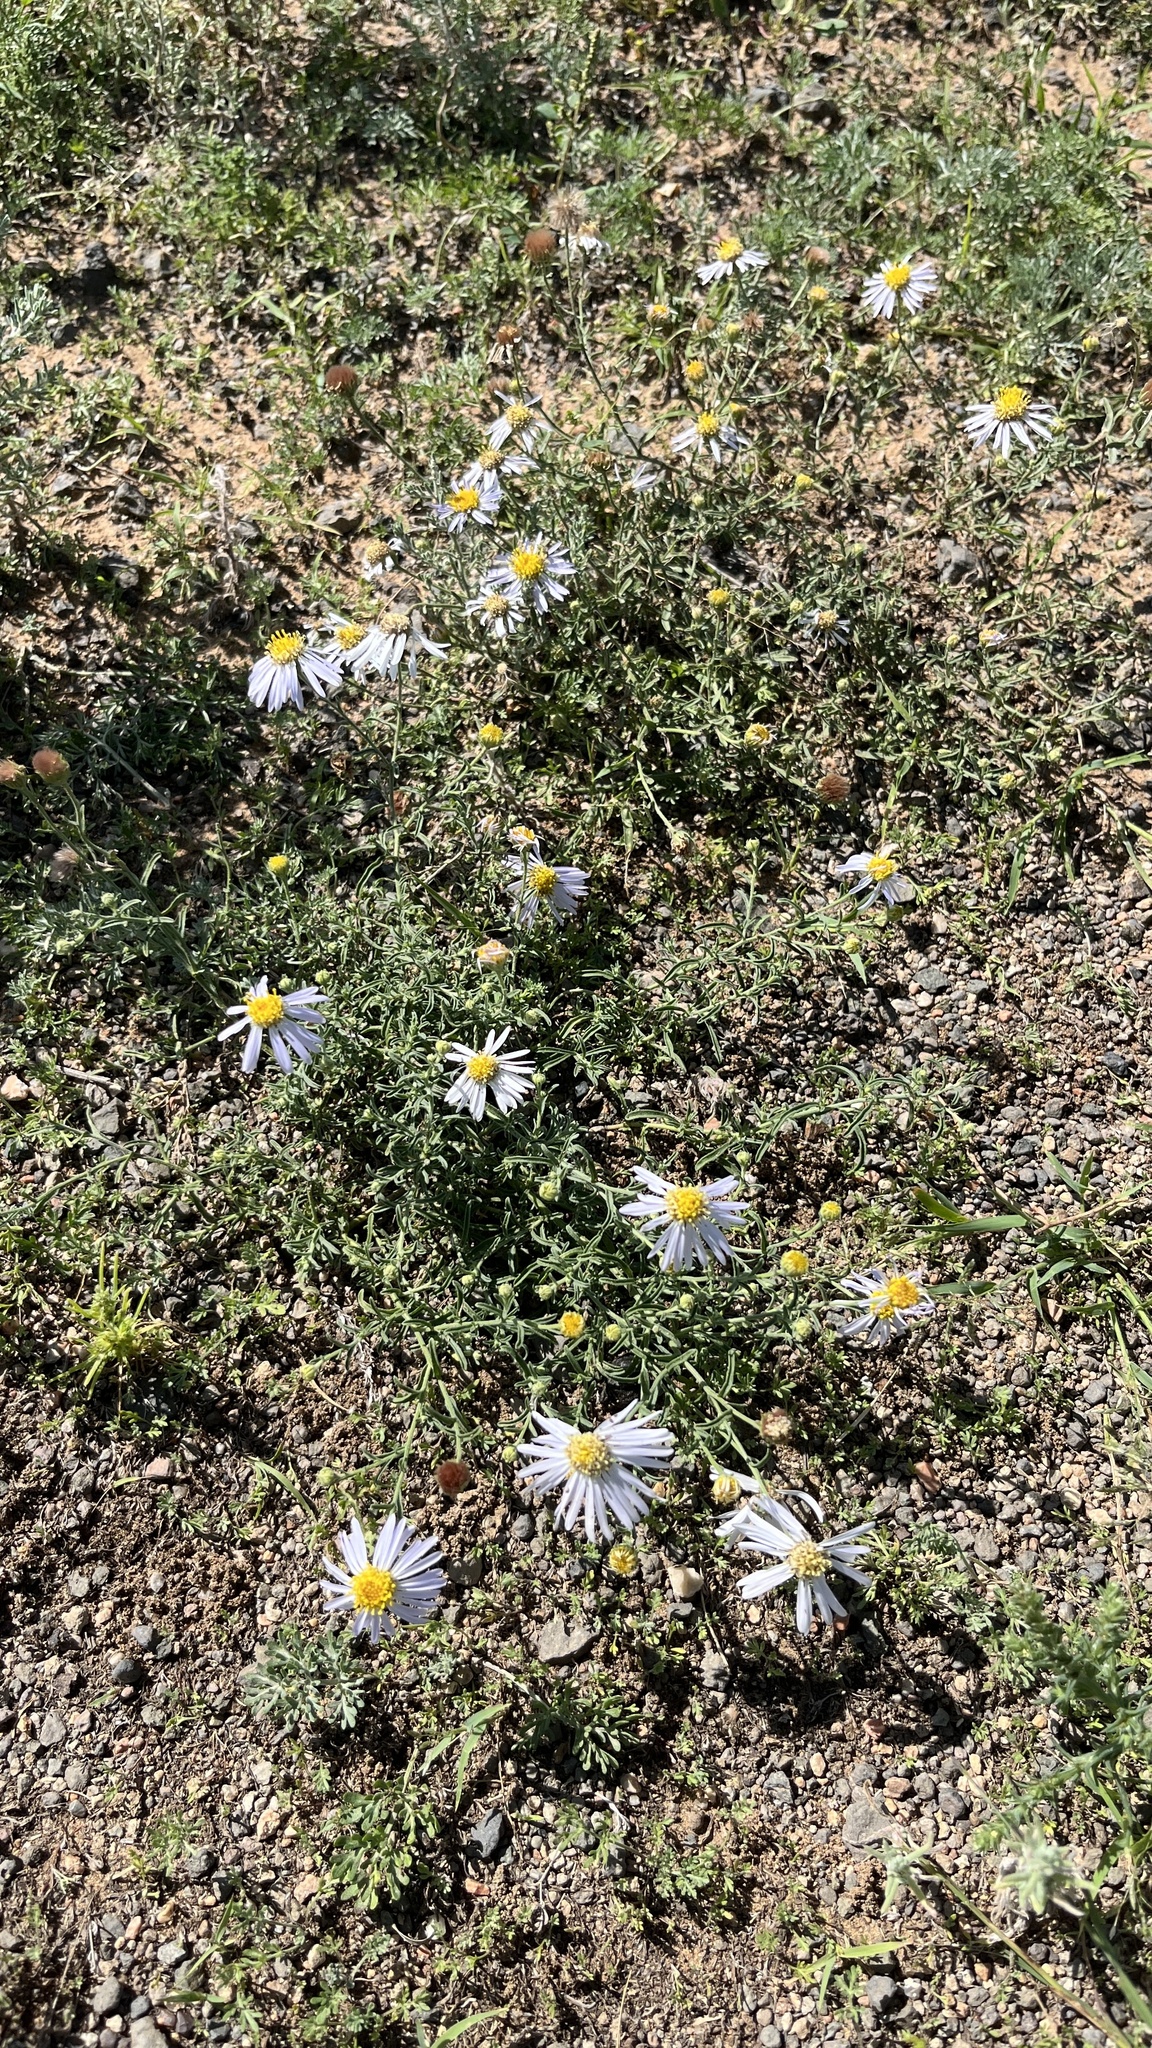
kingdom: Plantae
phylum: Tracheophyta
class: Magnoliopsida
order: Asterales
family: Asteraceae
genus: Heteropappus
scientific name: Heteropappus altaicus
